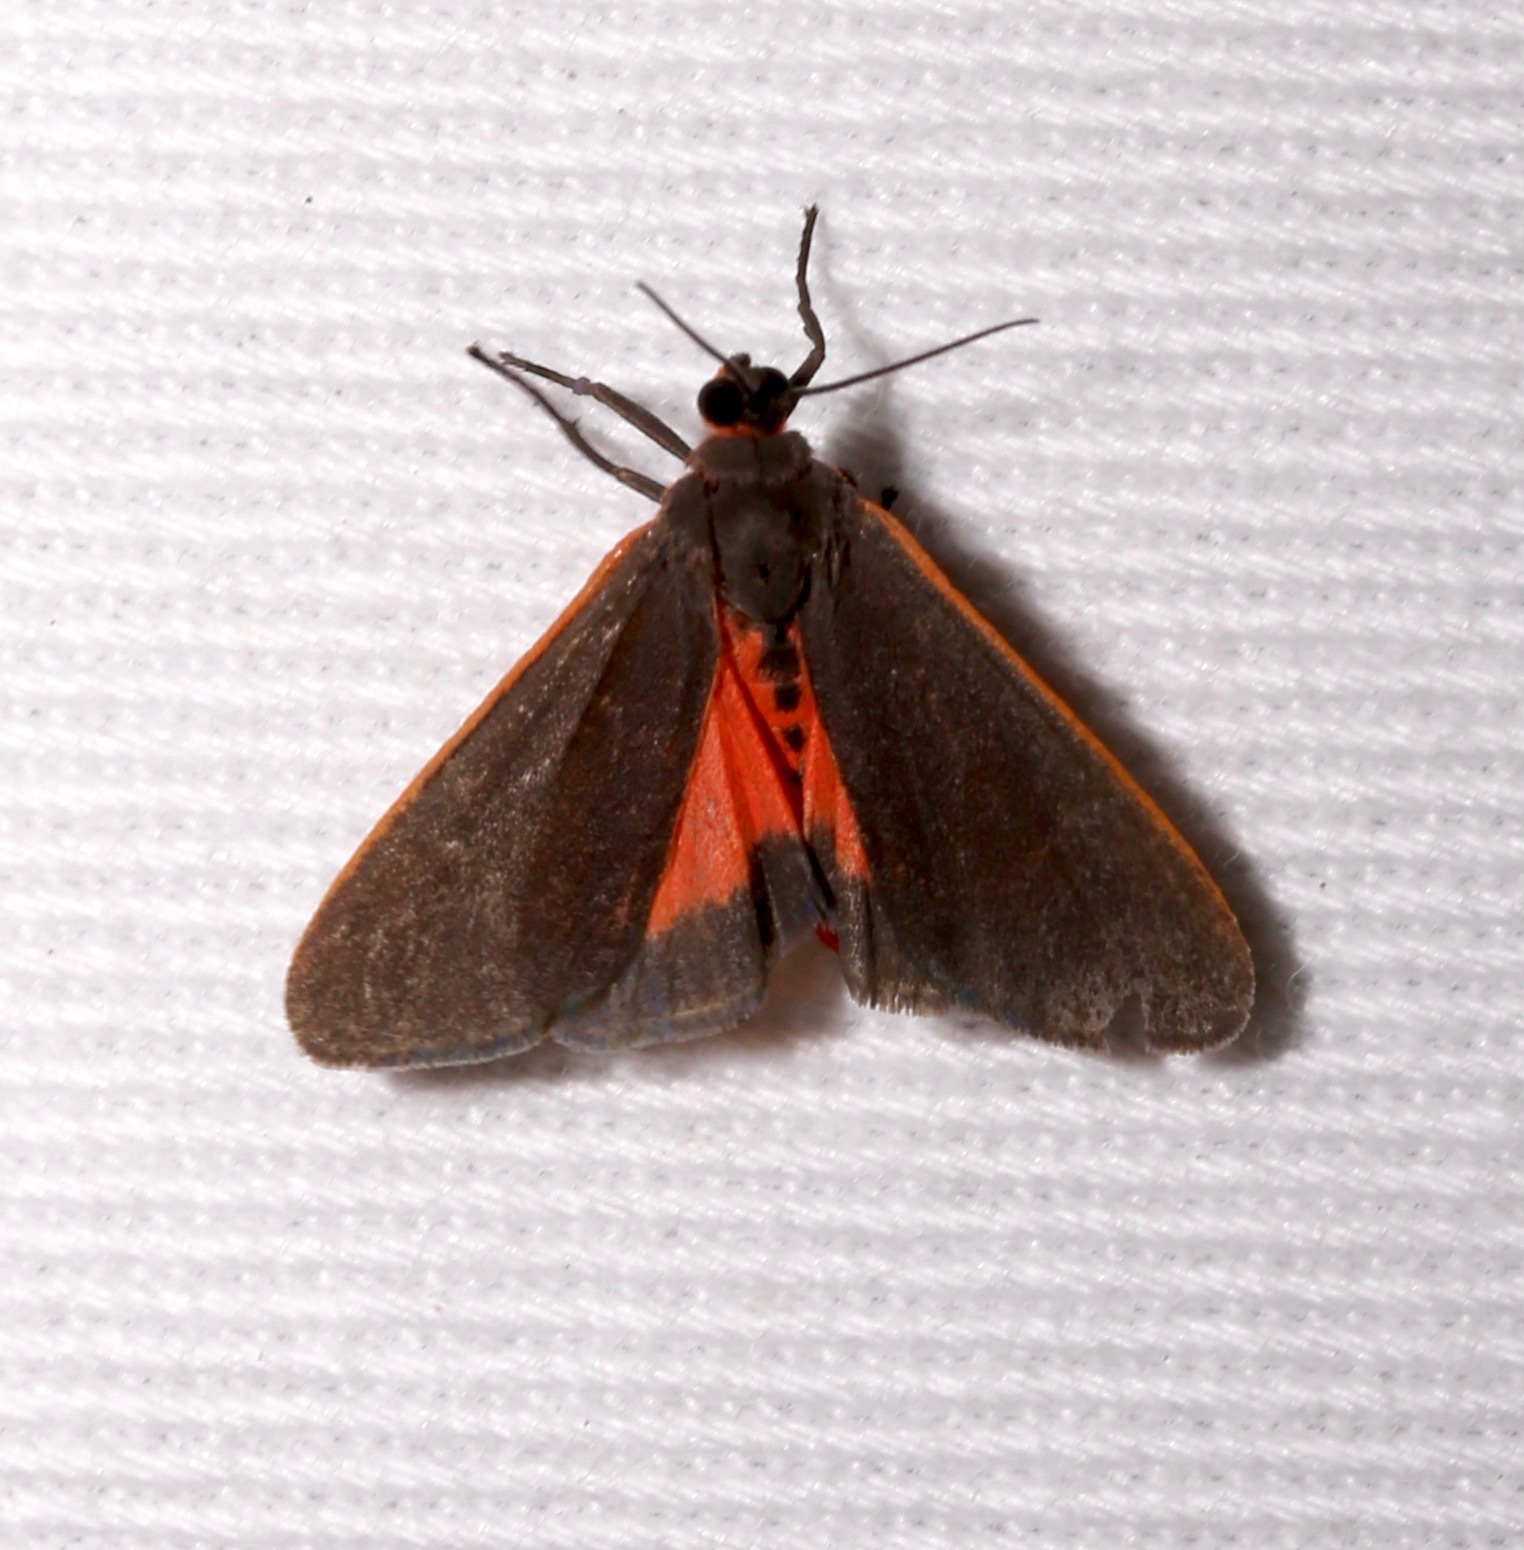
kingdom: Animalia
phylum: Arthropoda
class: Insecta
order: Lepidoptera
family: Erebidae
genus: Virbia
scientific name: Virbia laeta
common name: Joyful holomelina moth
